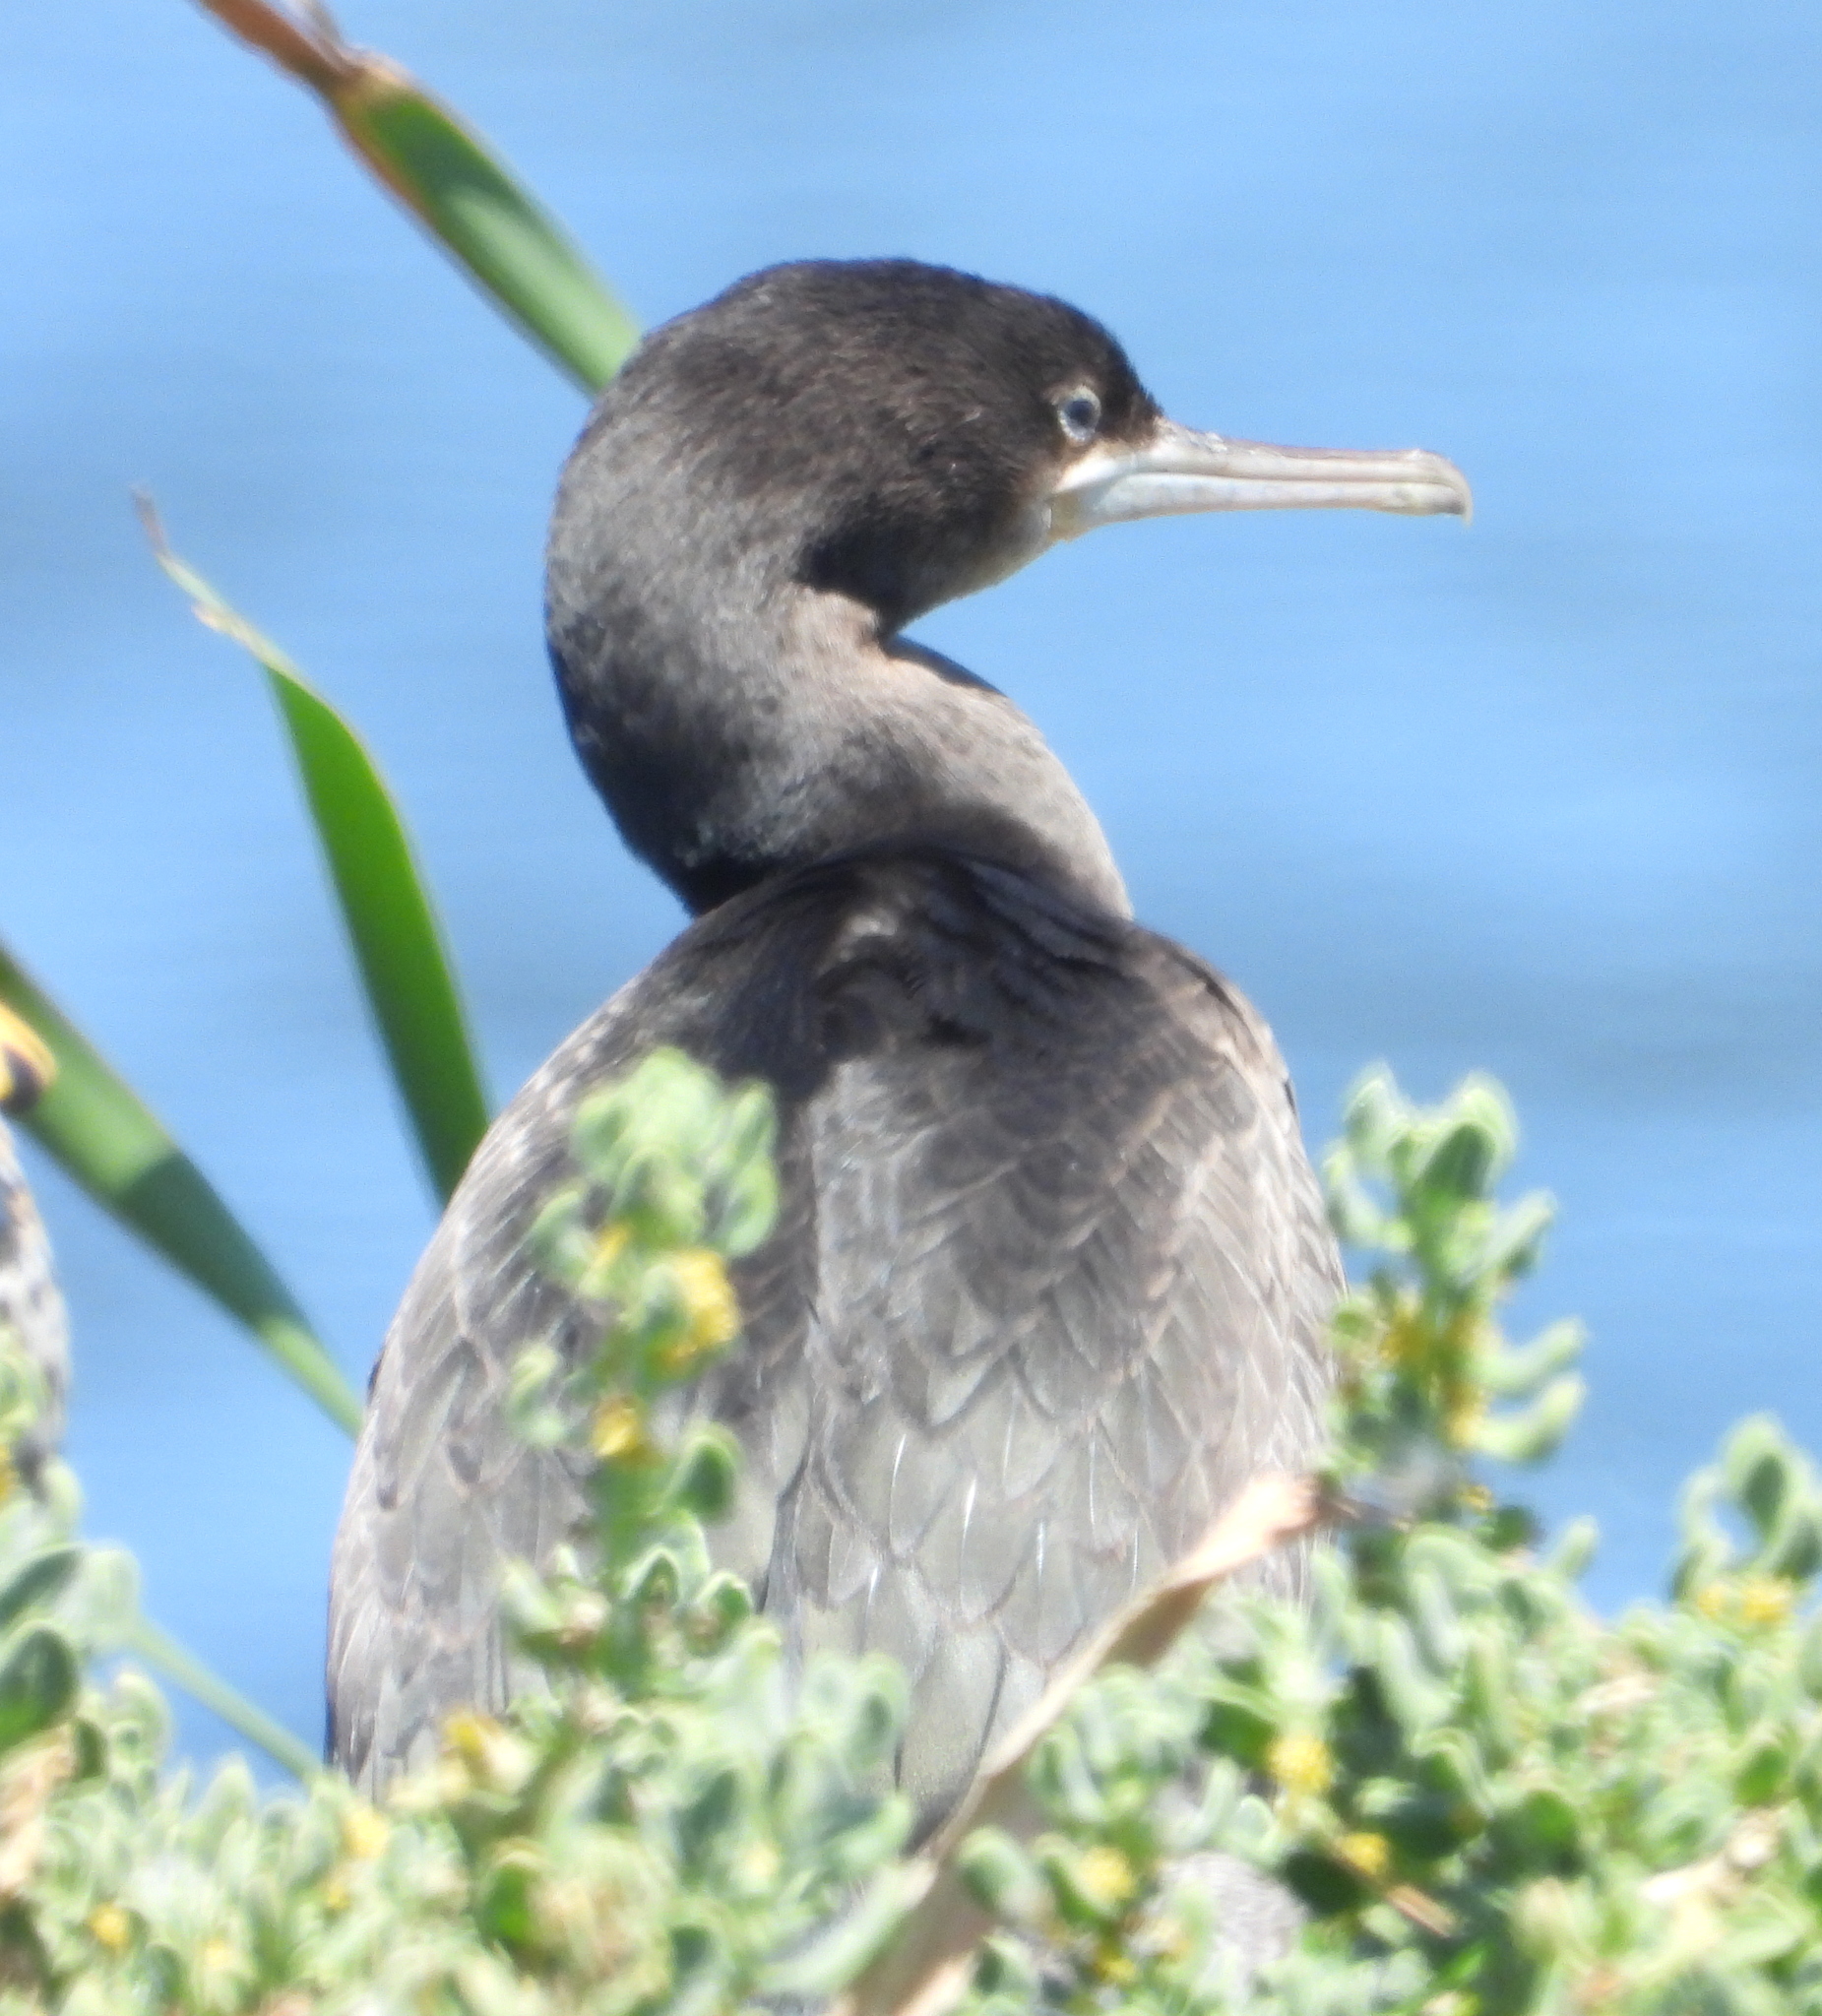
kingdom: Animalia
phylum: Chordata
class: Aves
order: Suliformes
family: Phalacrocoracidae
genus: Phalacrocorax
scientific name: Phalacrocorax capensis
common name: Cape cormorant
